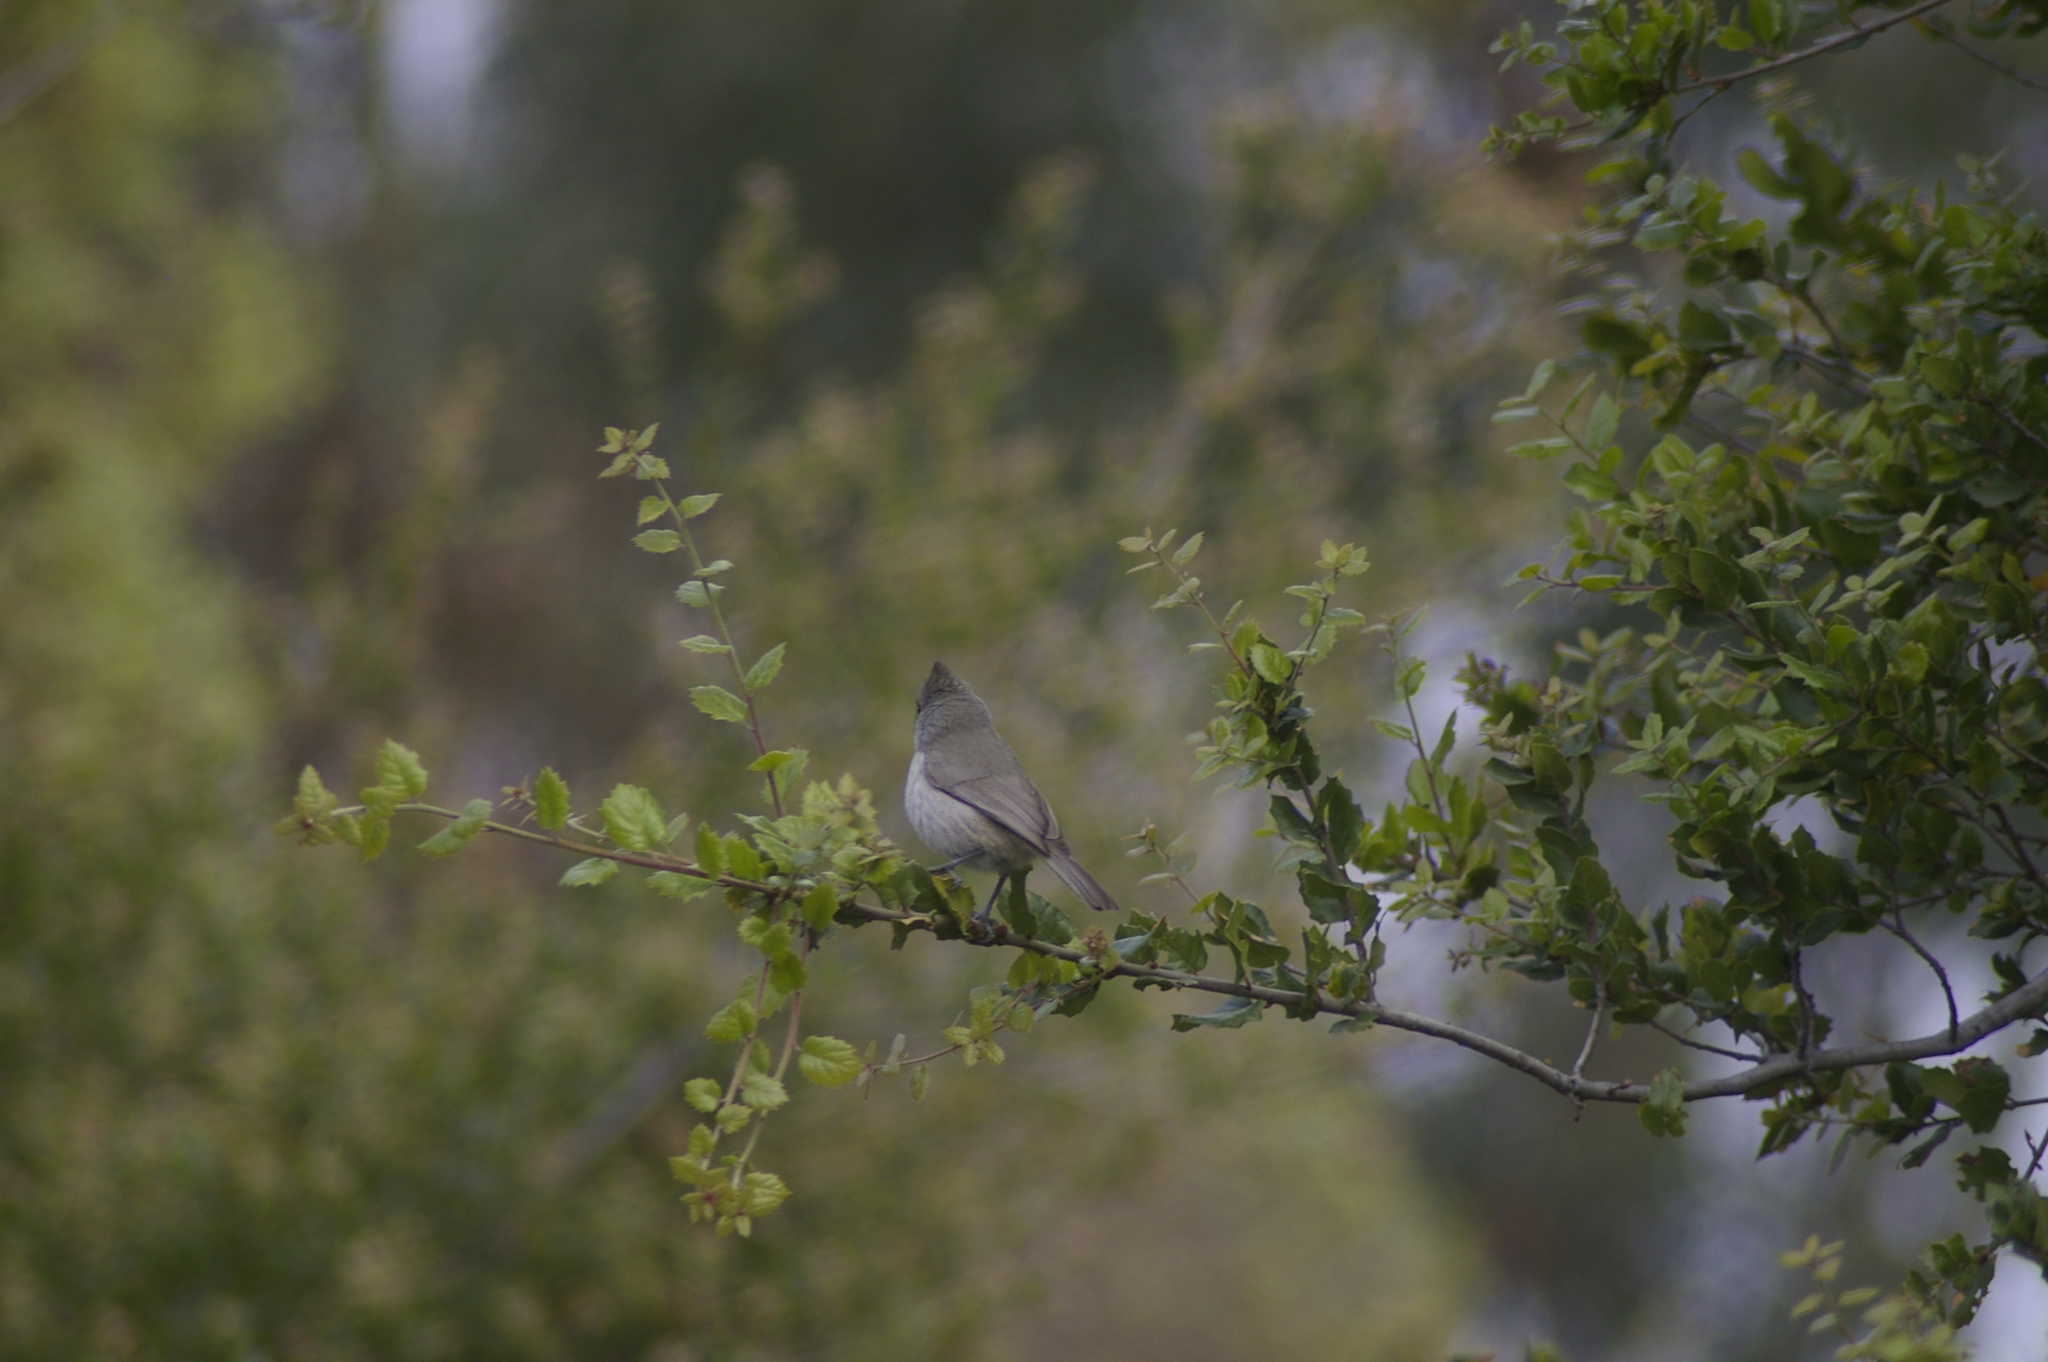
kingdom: Animalia
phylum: Chordata
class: Aves
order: Passeriformes
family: Paridae
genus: Baeolophus
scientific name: Baeolophus inornatus
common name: Oak titmouse
